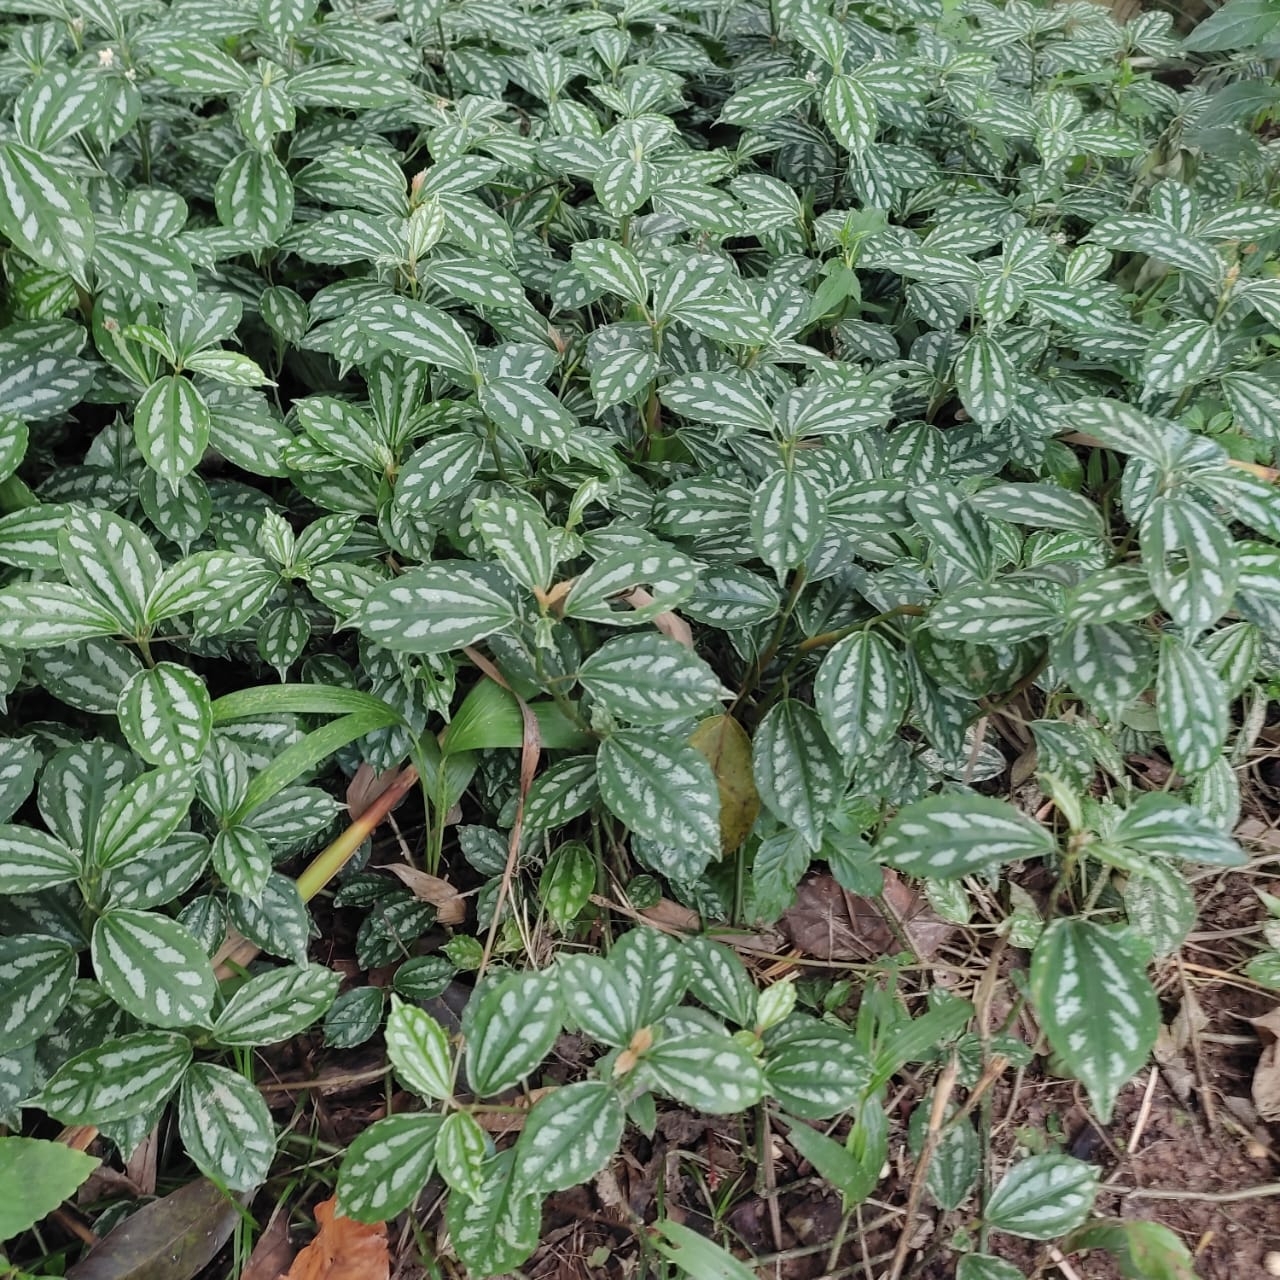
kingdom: Plantae
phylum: Tracheophyta
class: Magnoliopsida
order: Rosales
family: Urticaceae
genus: Pilea
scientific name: Pilea cadierei
